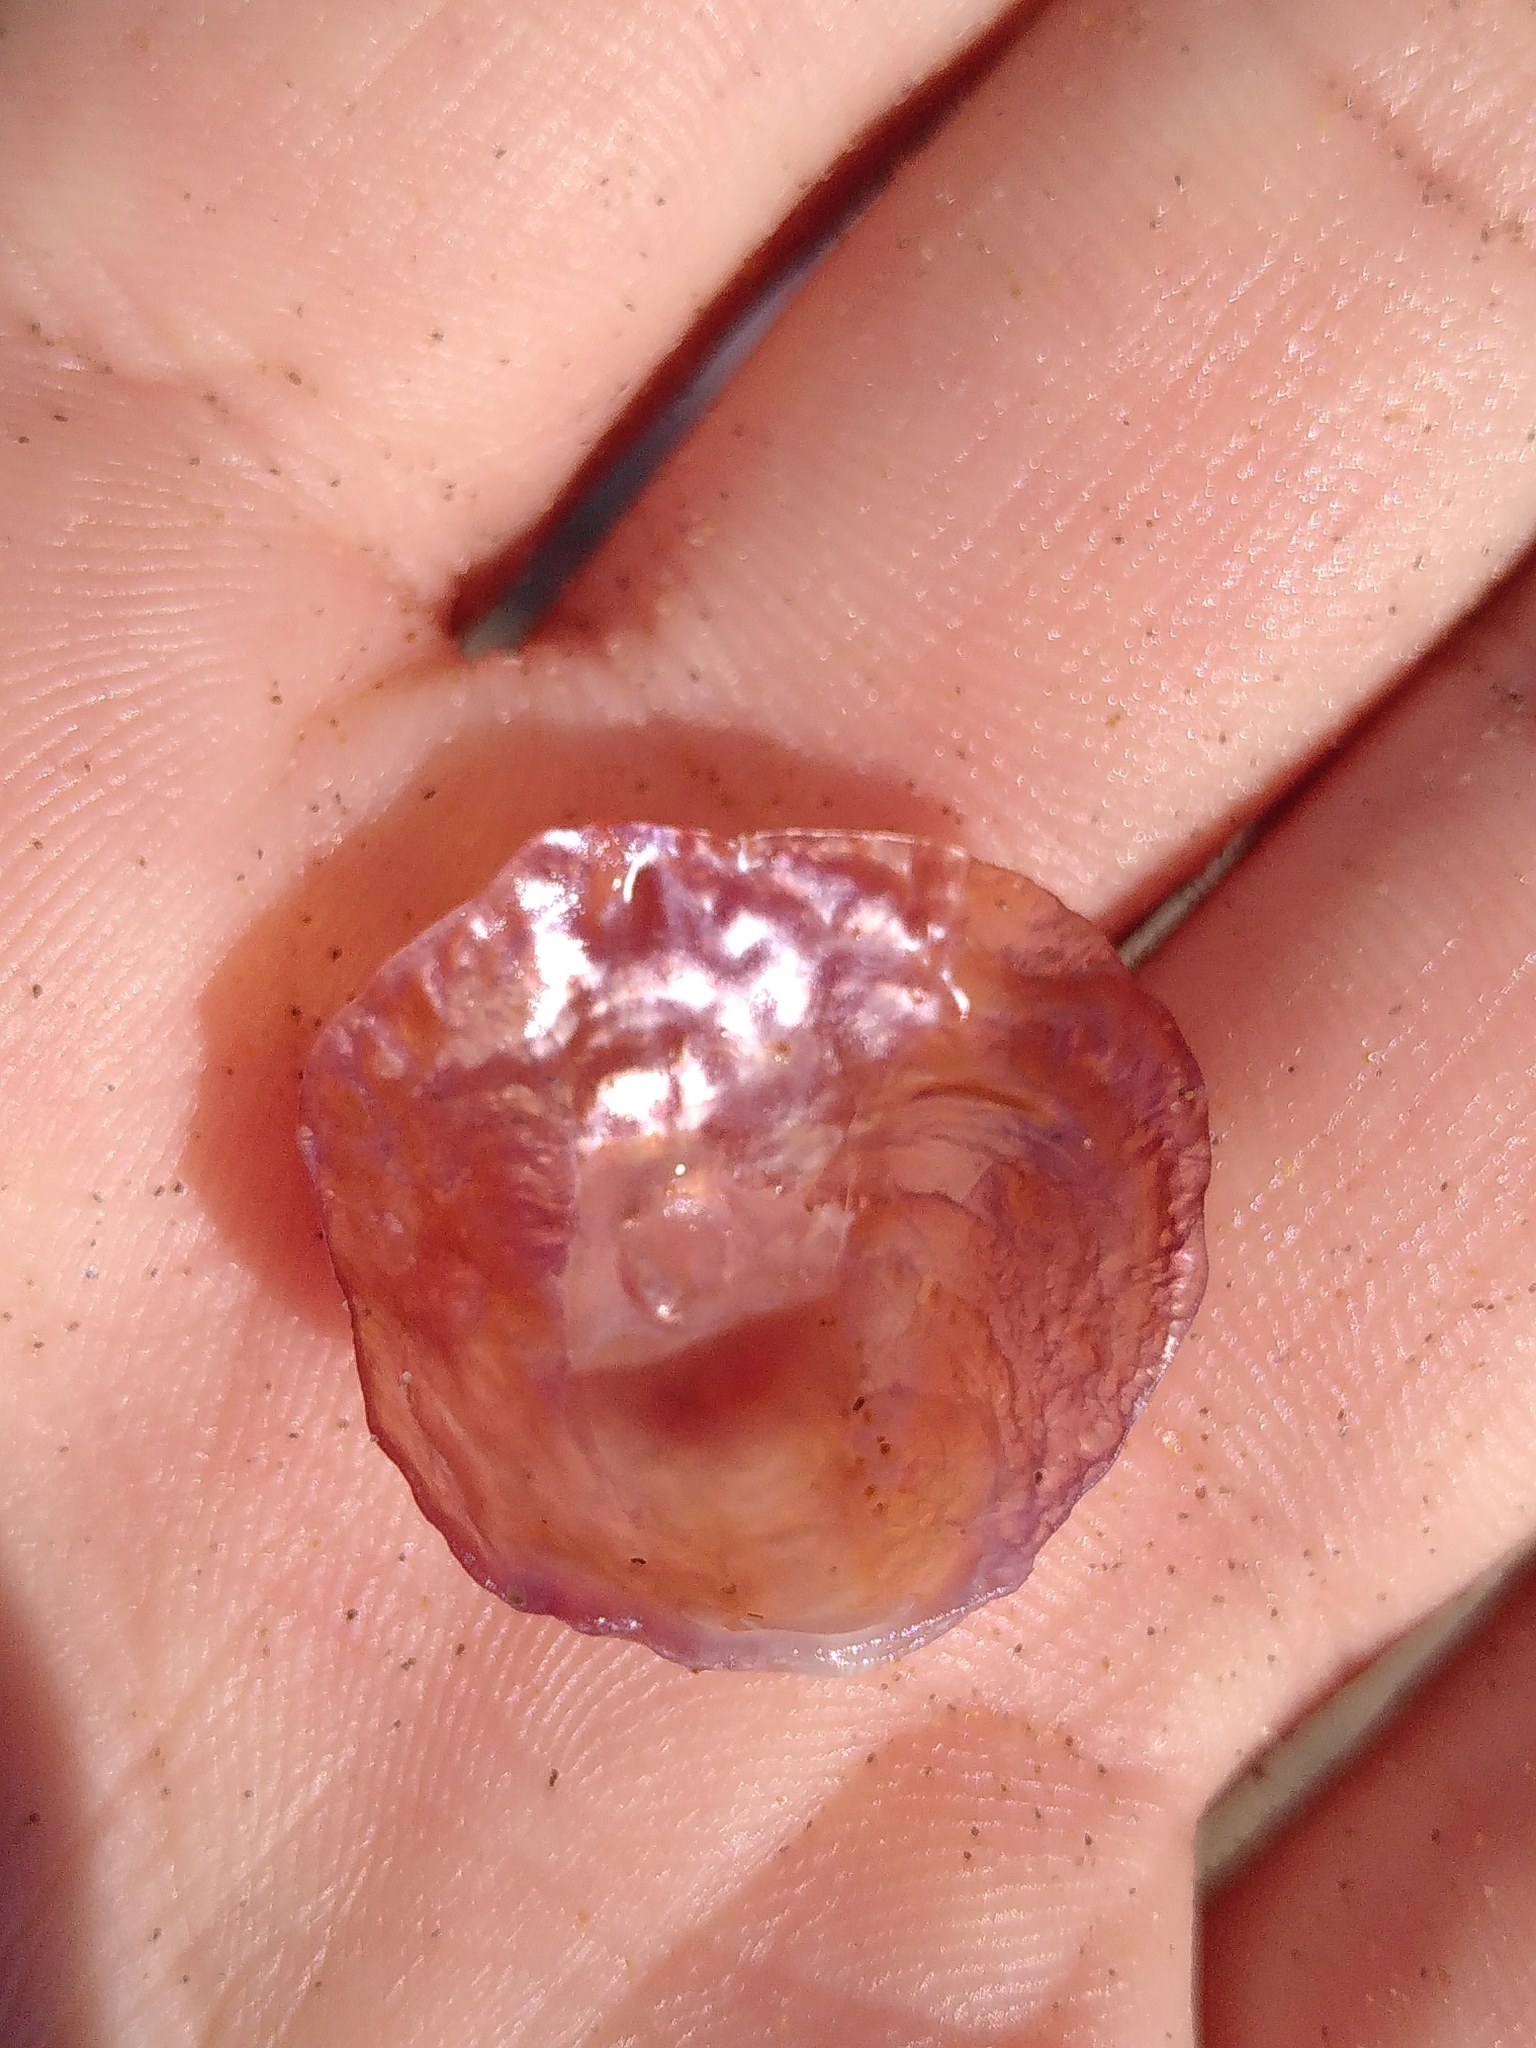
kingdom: Animalia
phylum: Mollusca
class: Bivalvia
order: Pectinida
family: Anomiidae
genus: Anomia
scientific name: Anomia ephippium
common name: Saddle oyster
